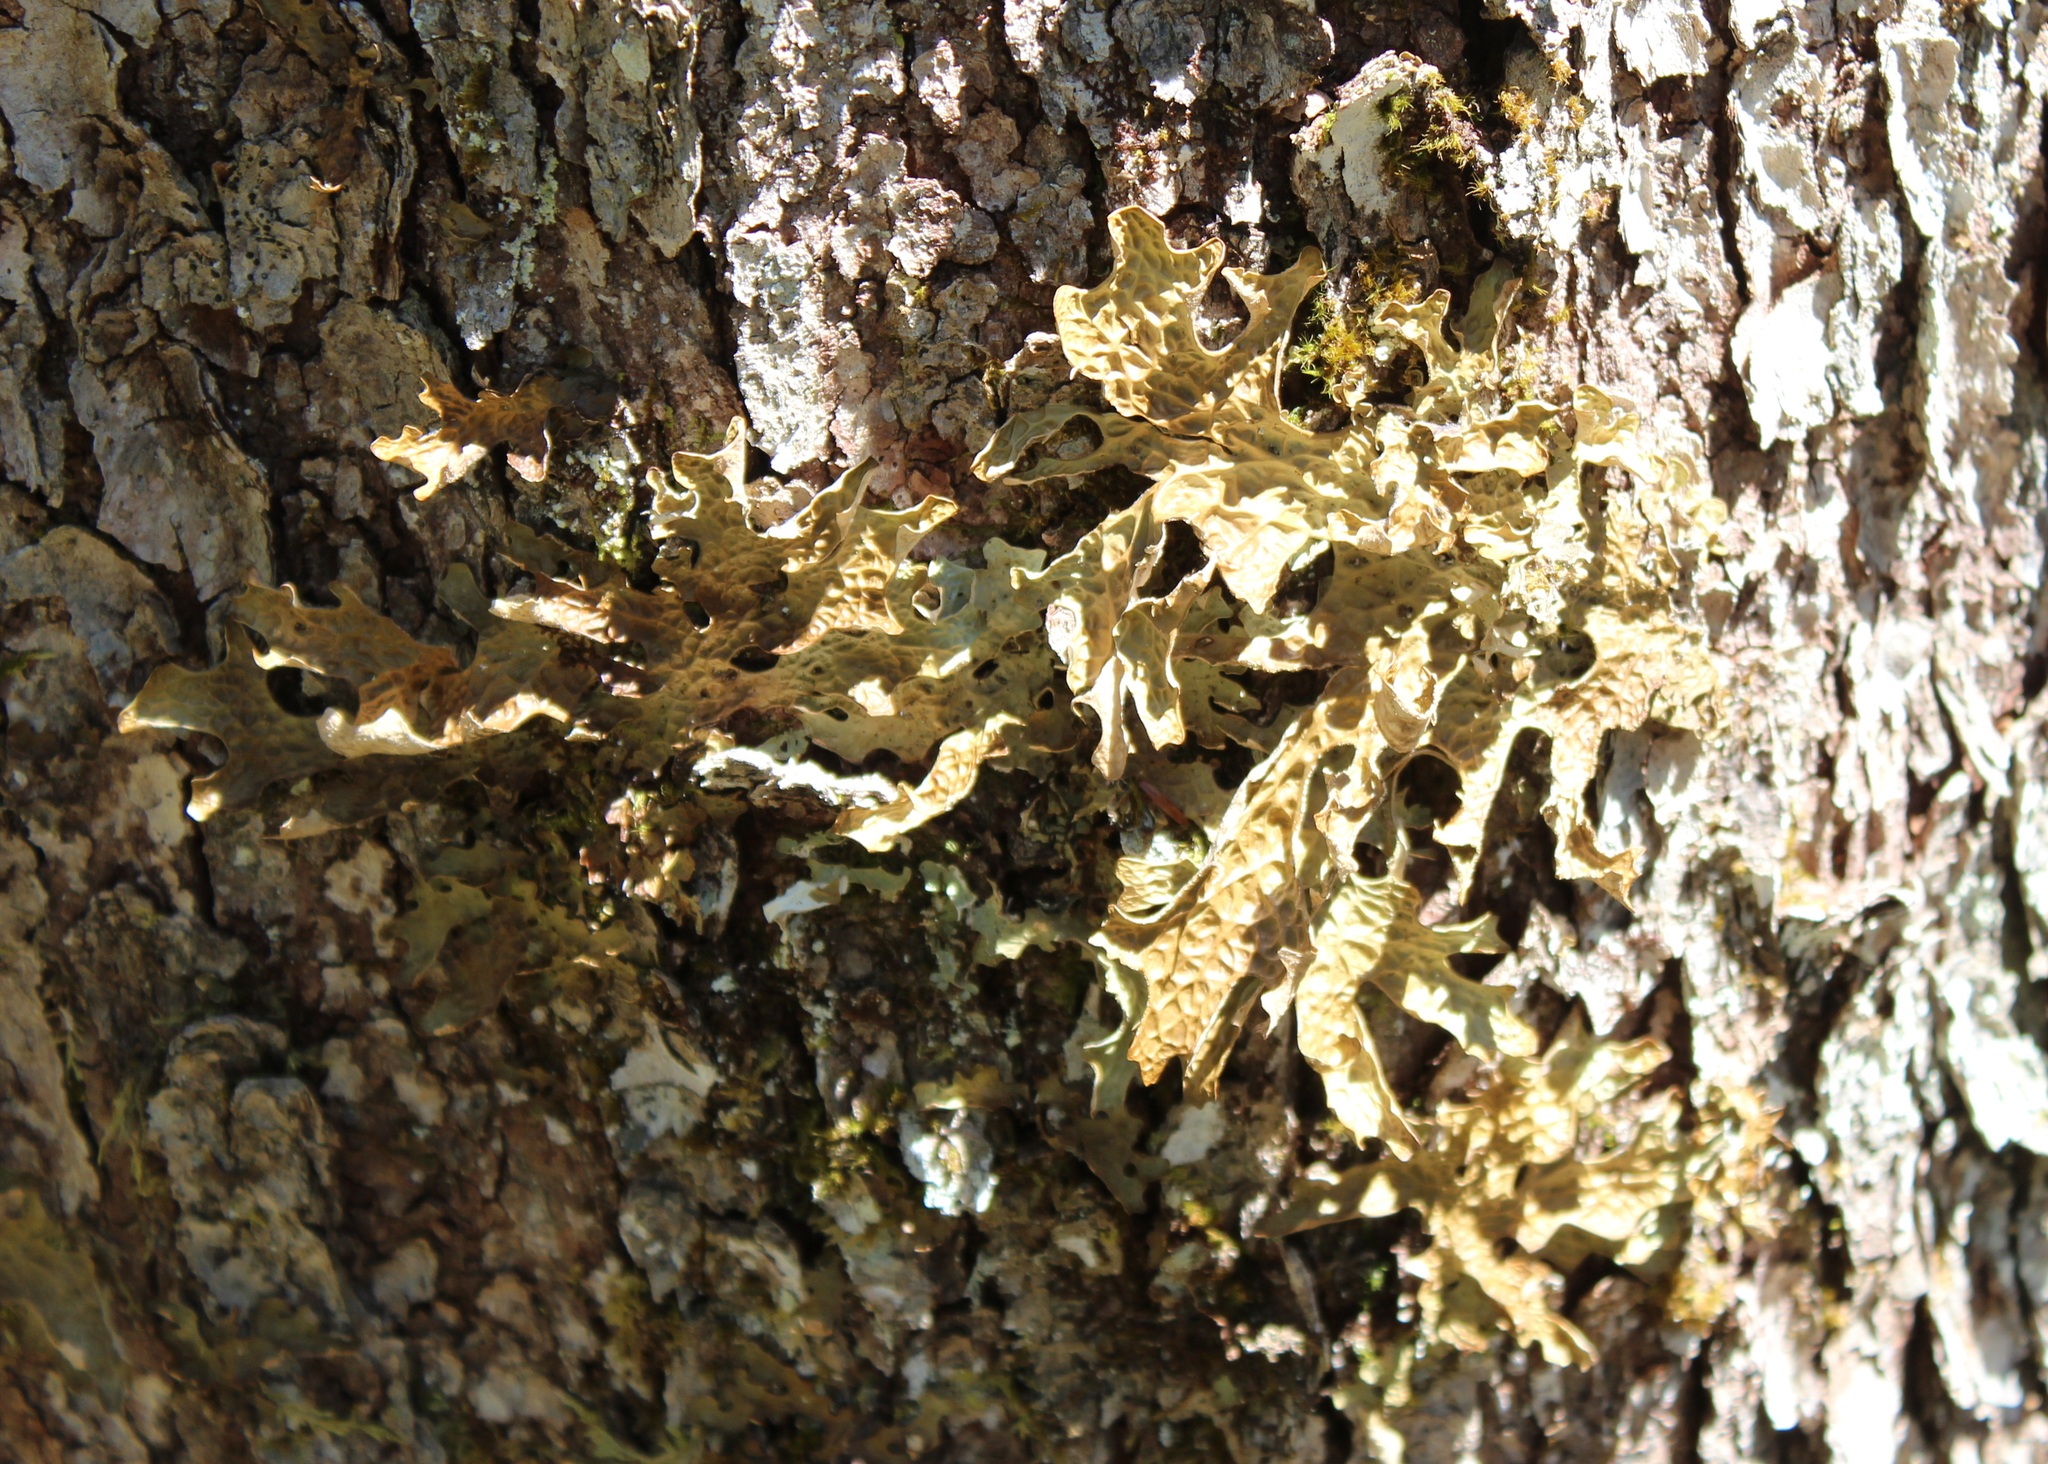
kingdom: Fungi
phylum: Ascomycota
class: Lecanoromycetes
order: Peltigerales
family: Lobariaceae
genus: Lobaria
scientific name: Lobaria pulmonaria
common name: Lungwort
